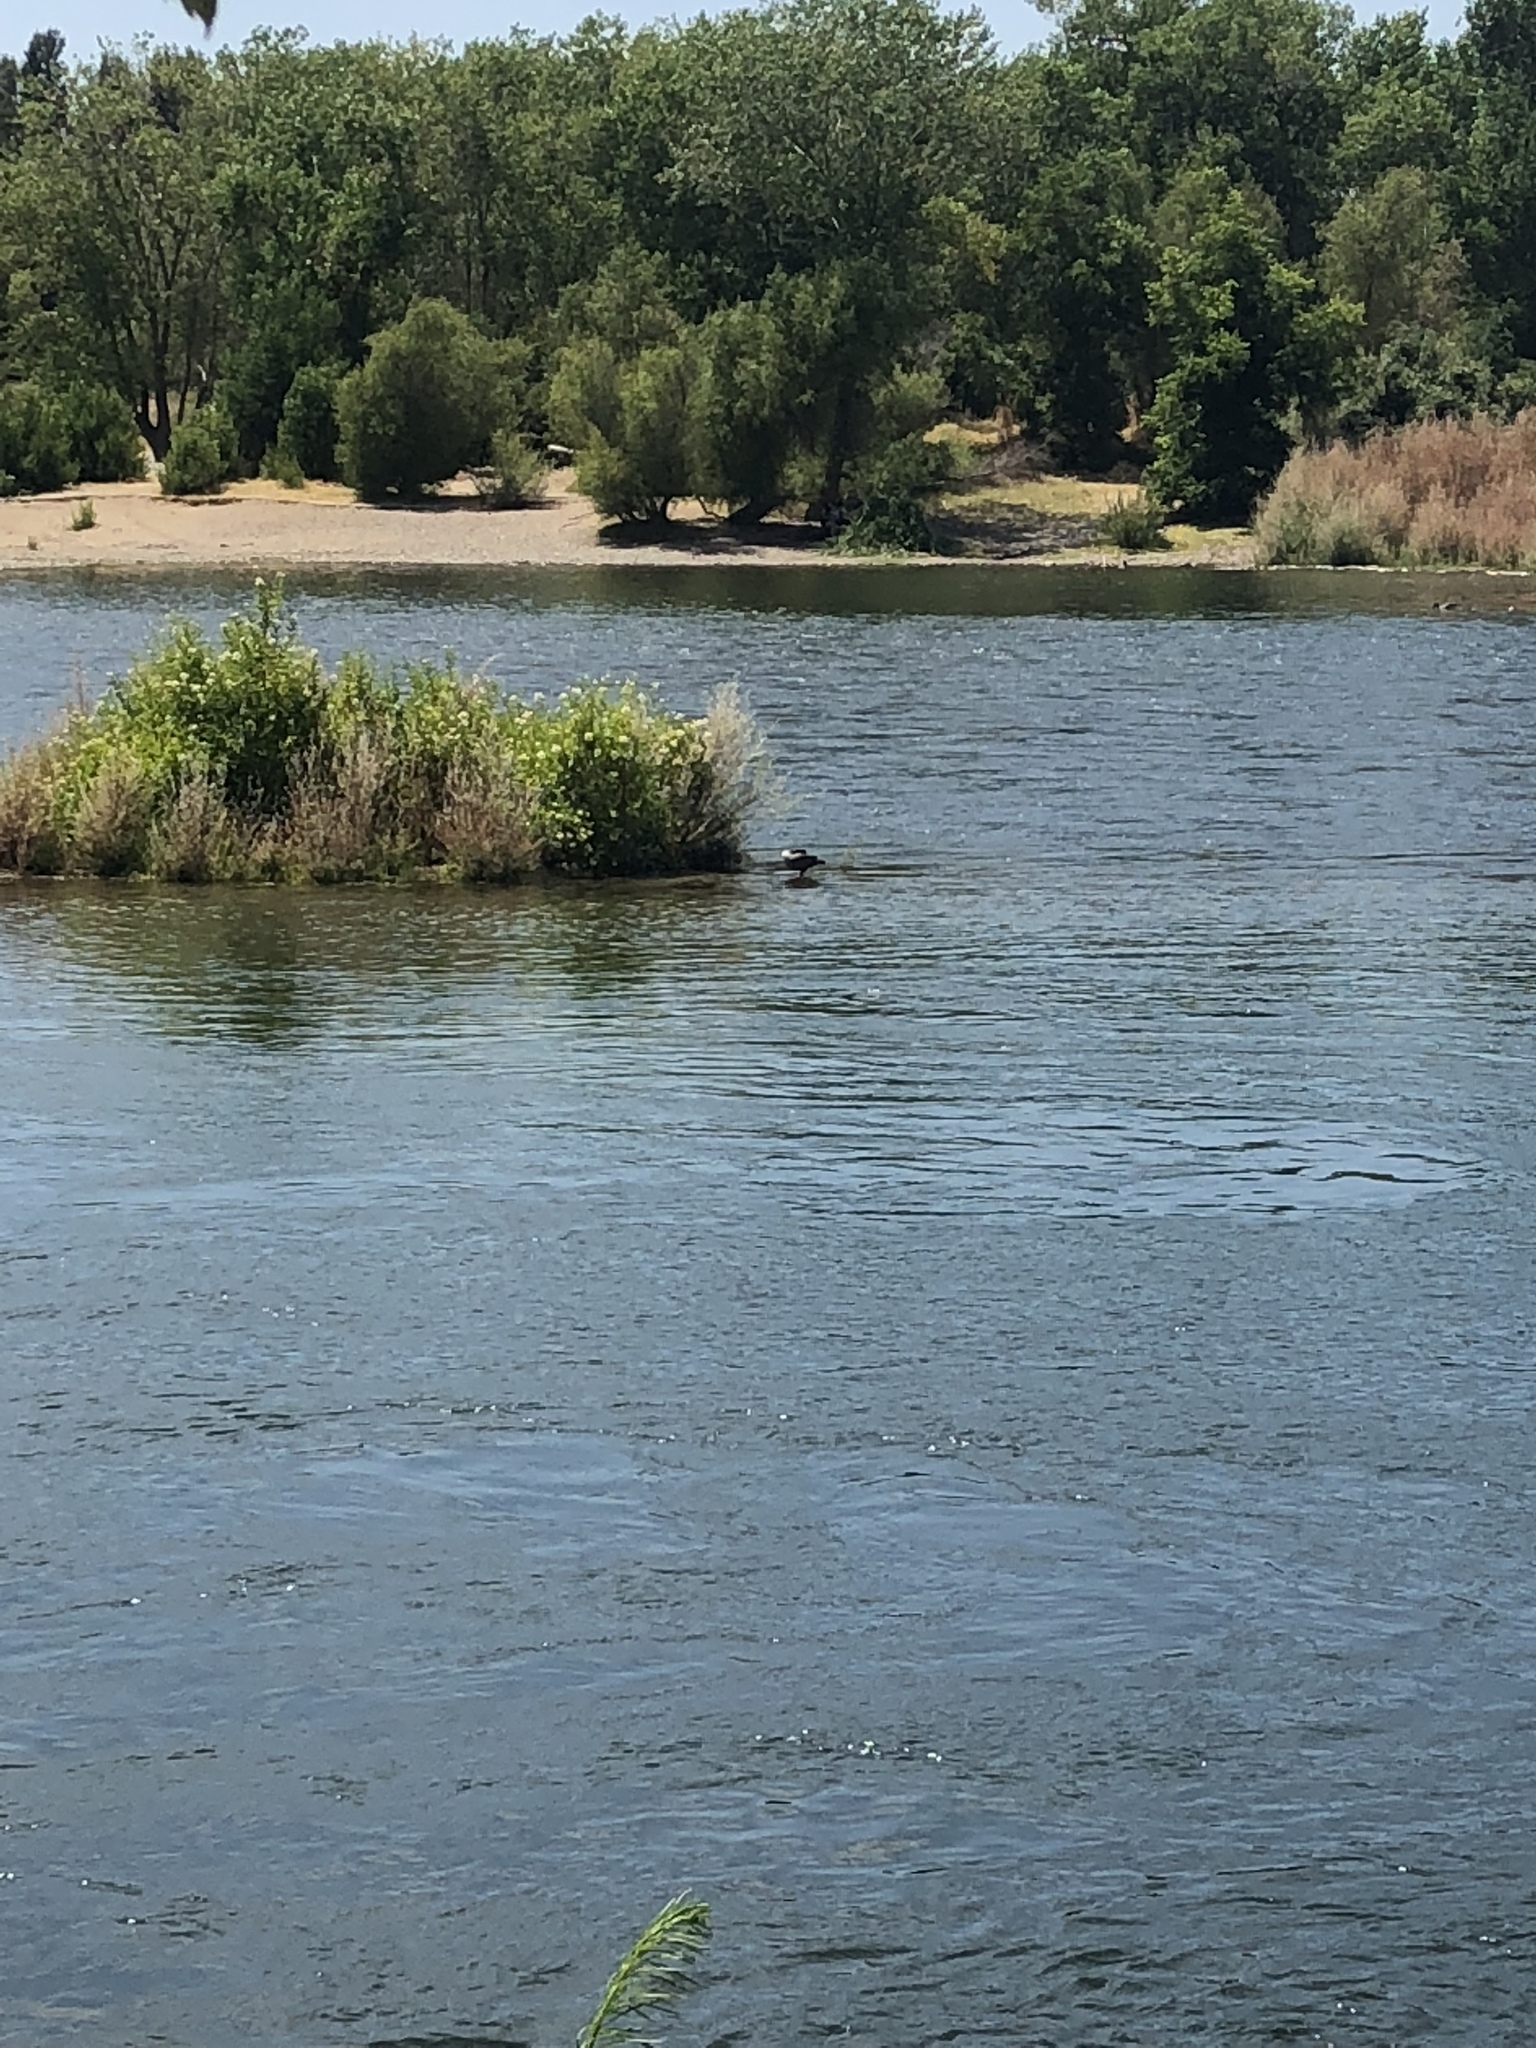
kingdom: Animalia
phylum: Chordata
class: Aves
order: Anseriformes
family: Anatidae
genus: Branta
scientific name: Branta canadensis
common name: Canada goose
